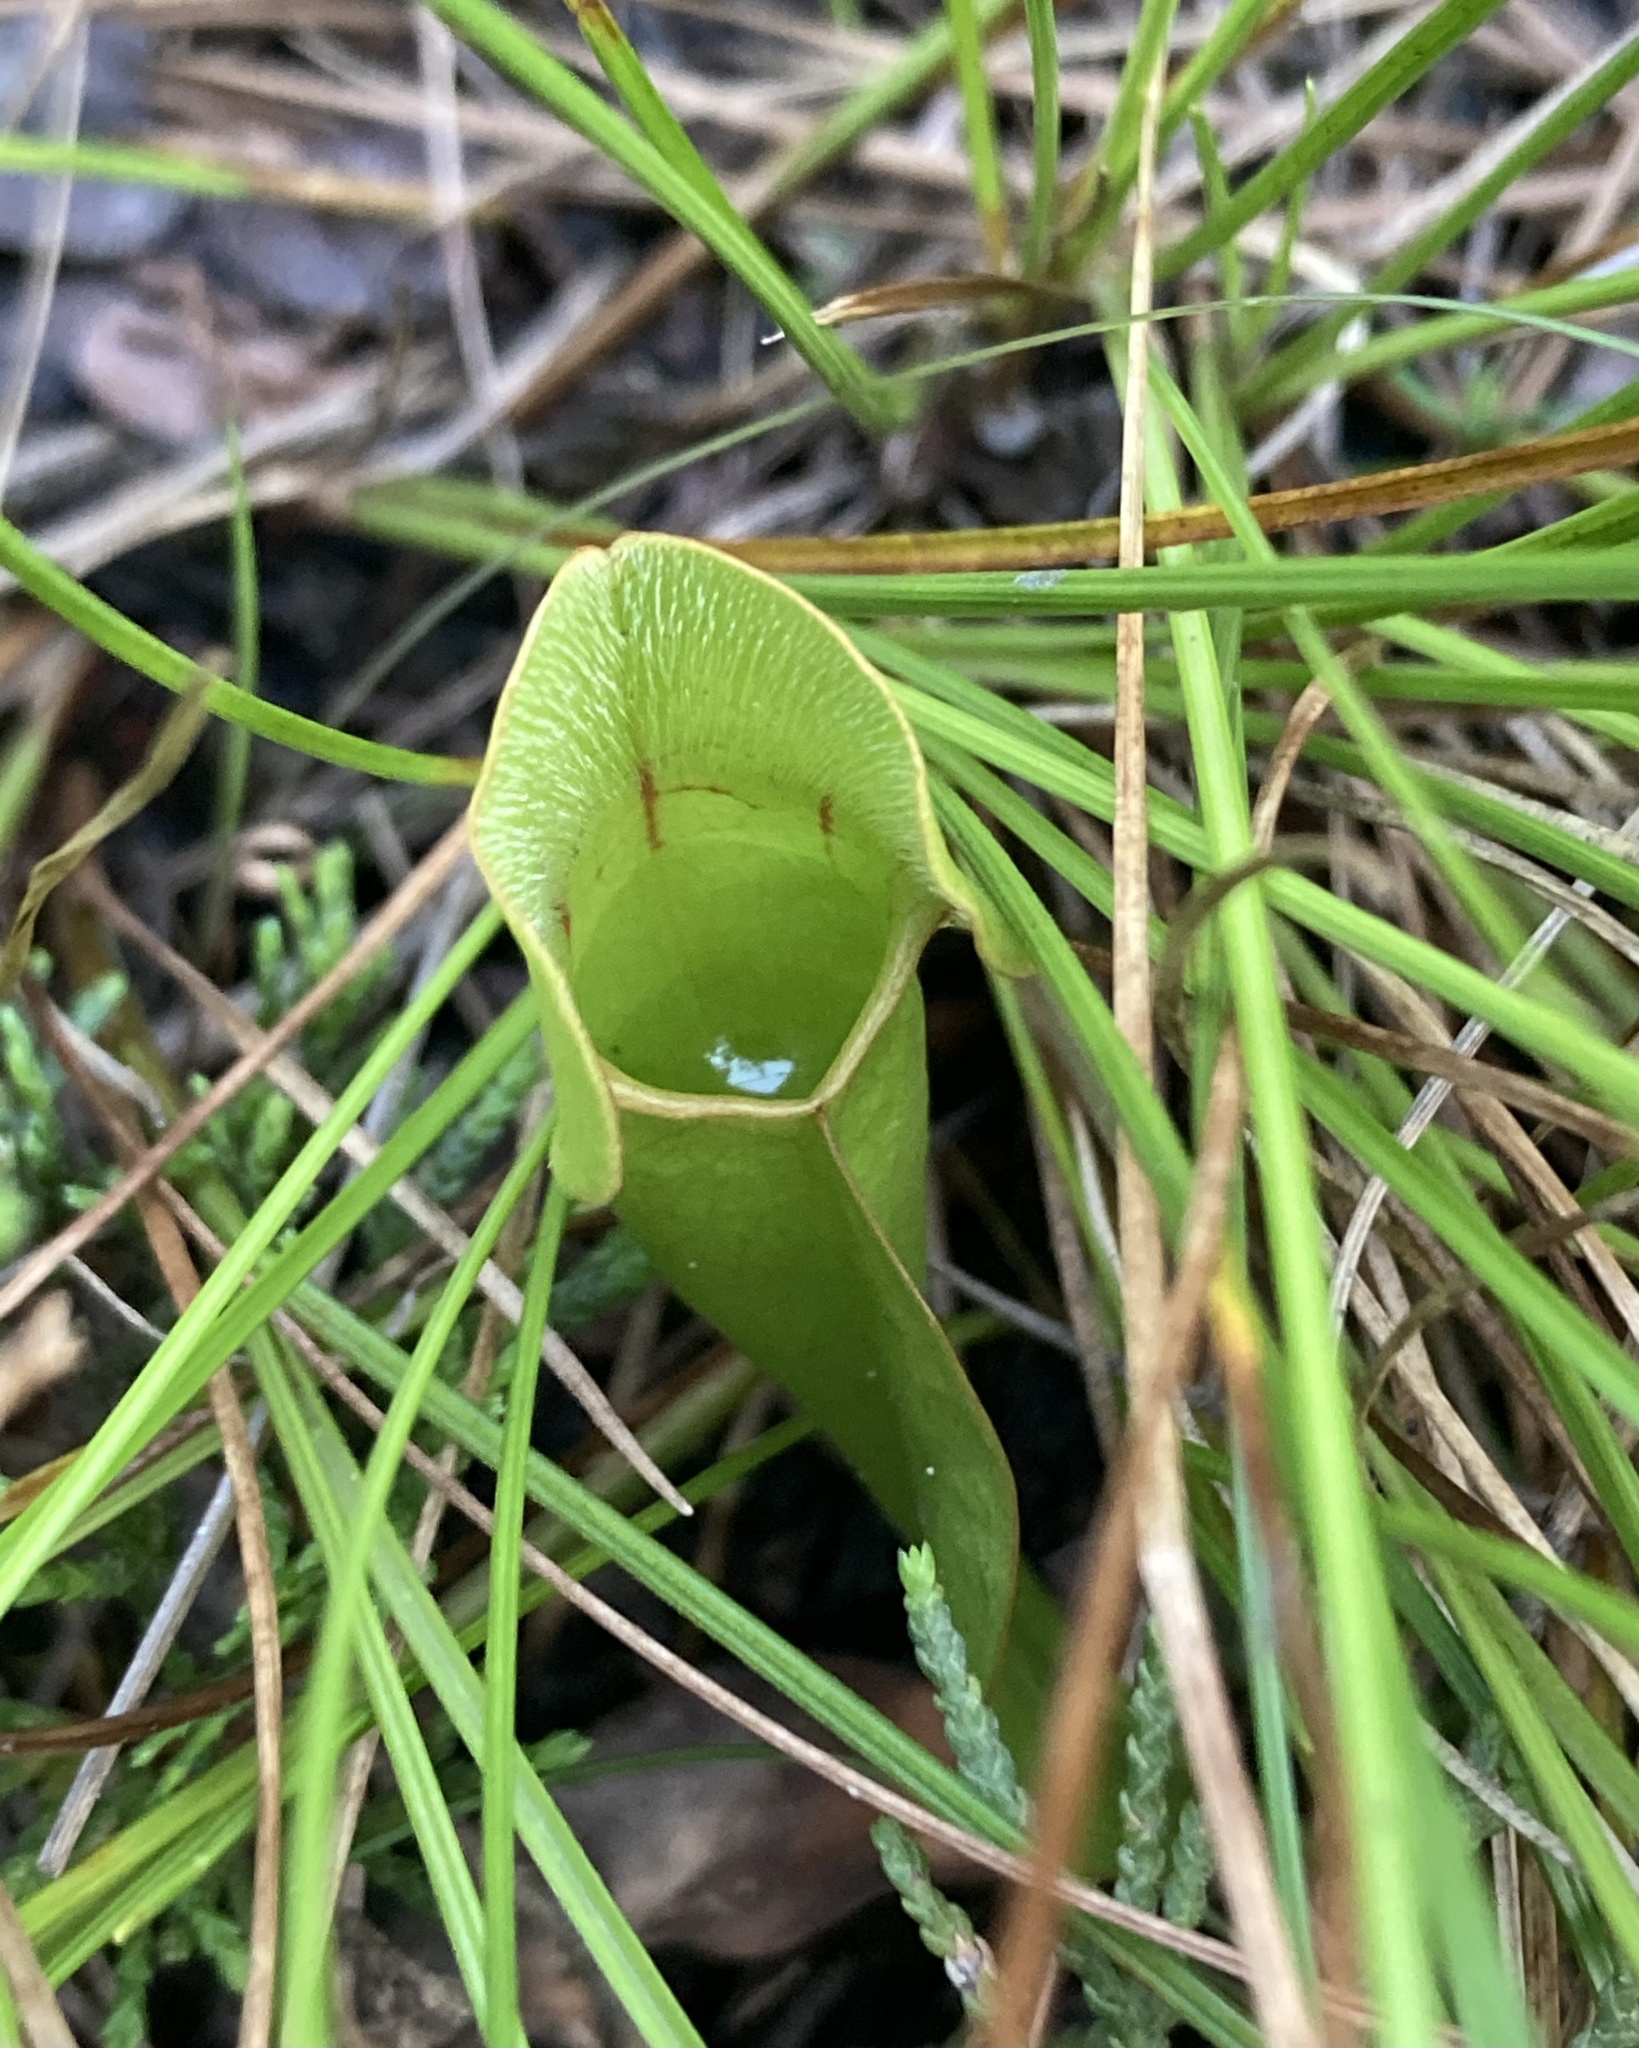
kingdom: Plantae
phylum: Tracheophyta
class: Magnoliopsida
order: Ericales
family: Sarraceniaceae
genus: Sarracenia
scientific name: Sarracenia purpurea
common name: Pitcherplant
